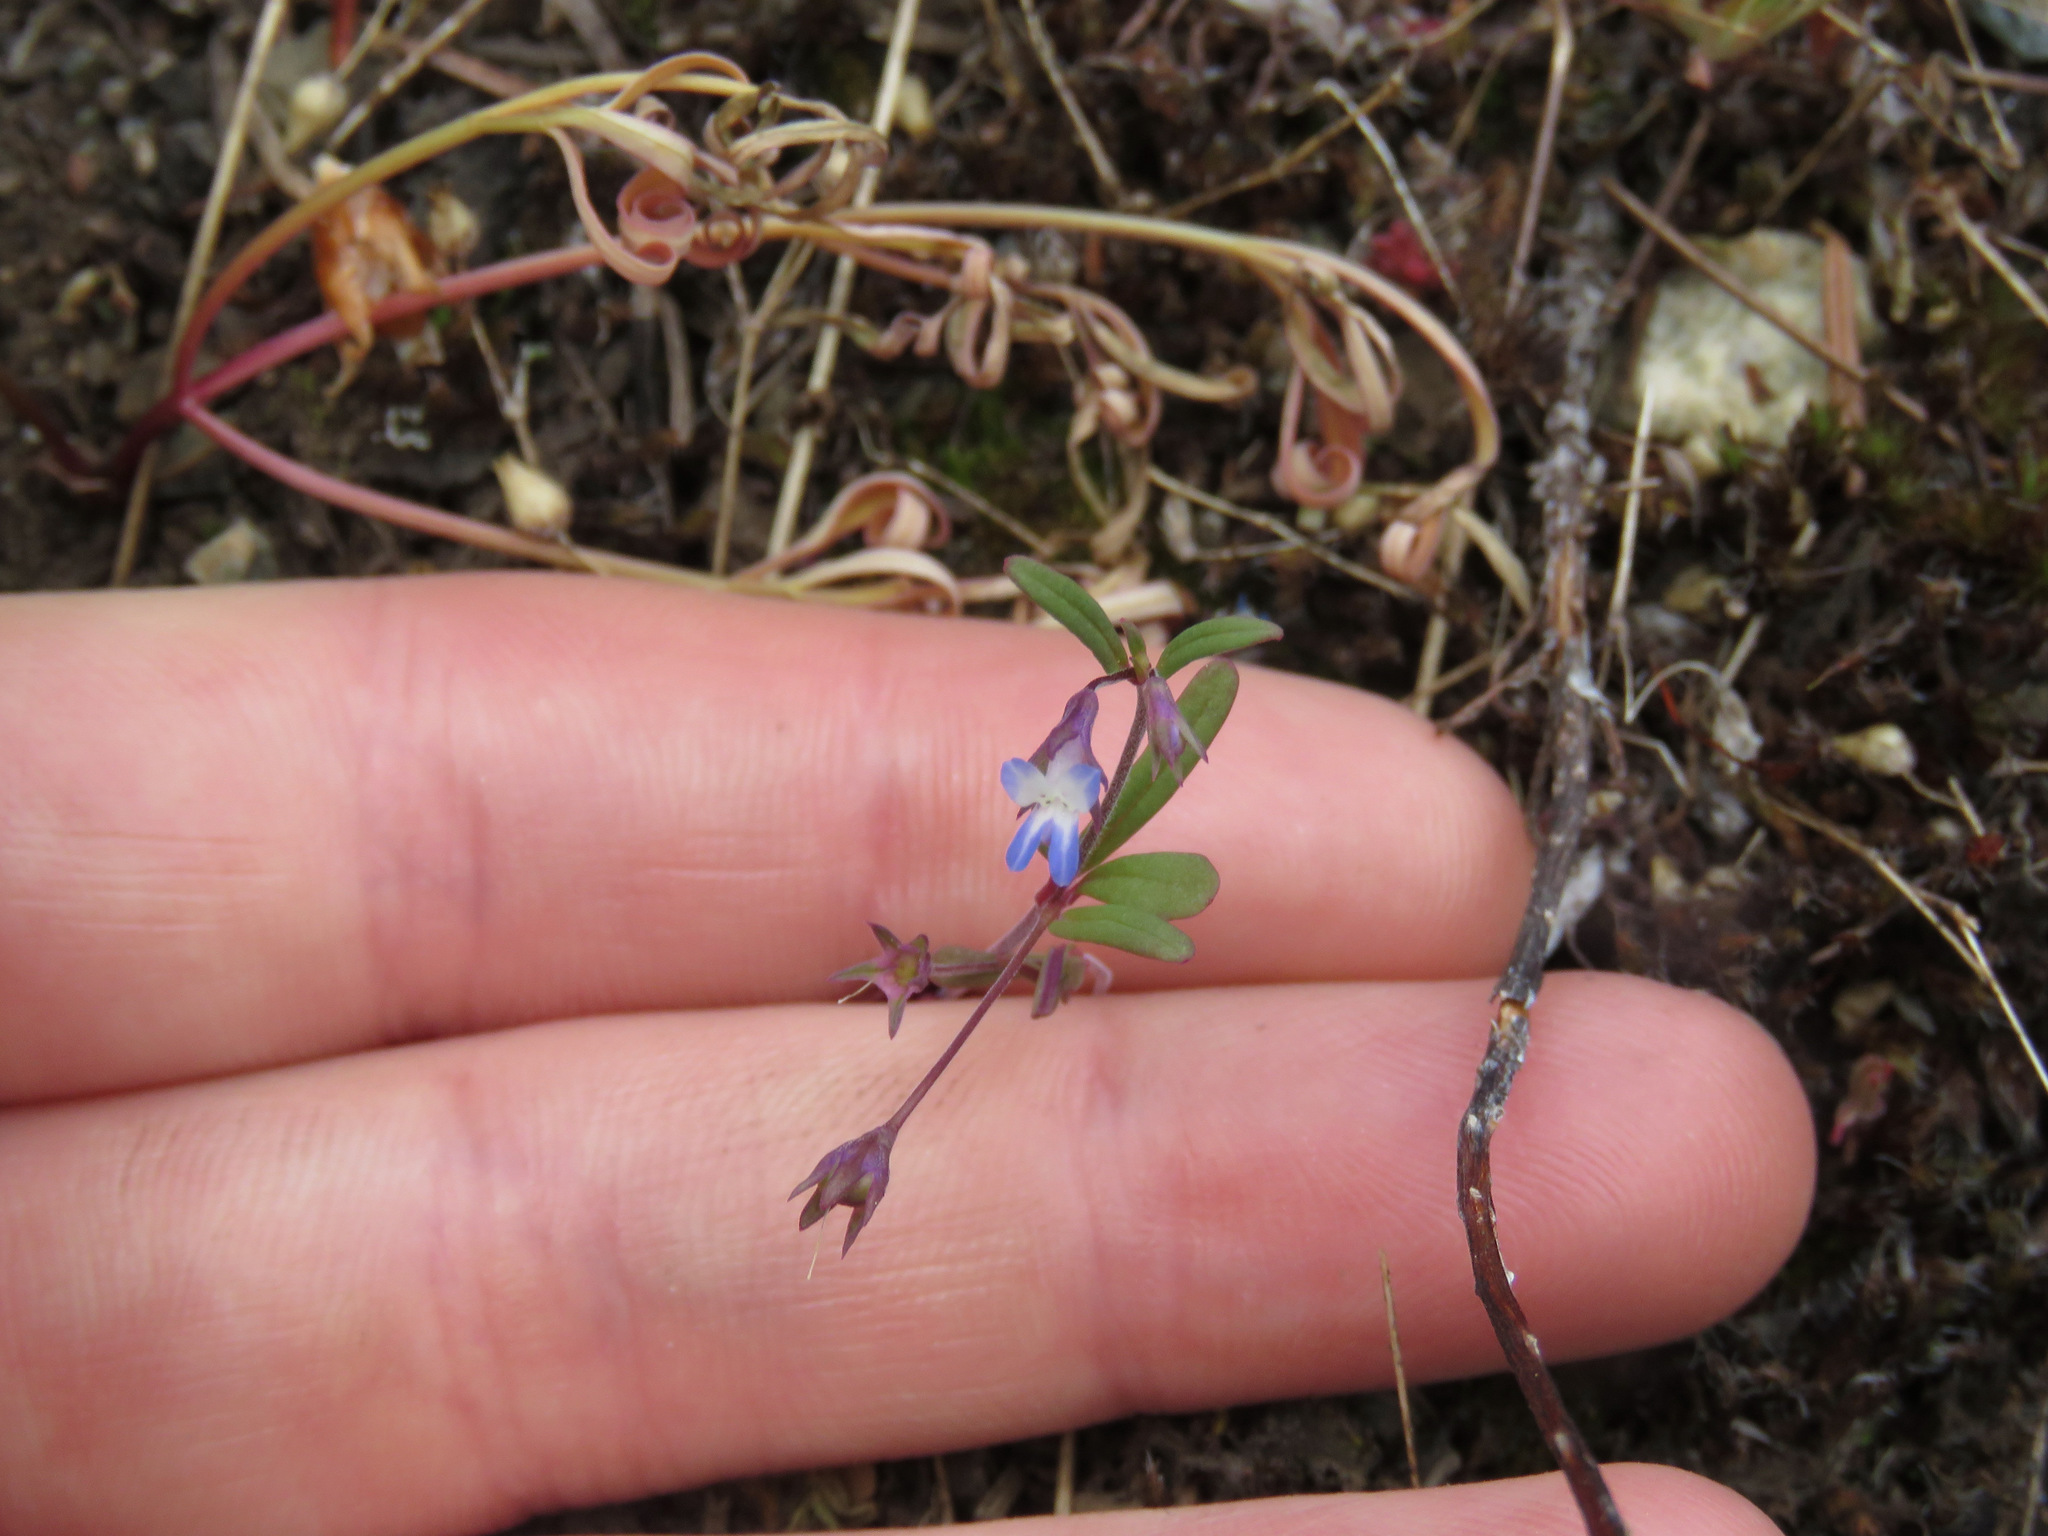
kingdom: Plantae
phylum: Tracheophyta
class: Magnoliopsida
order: Lamiales
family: Plantaginaceae
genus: Collinsia
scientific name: Collinsia parviflora
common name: Blue-lips
